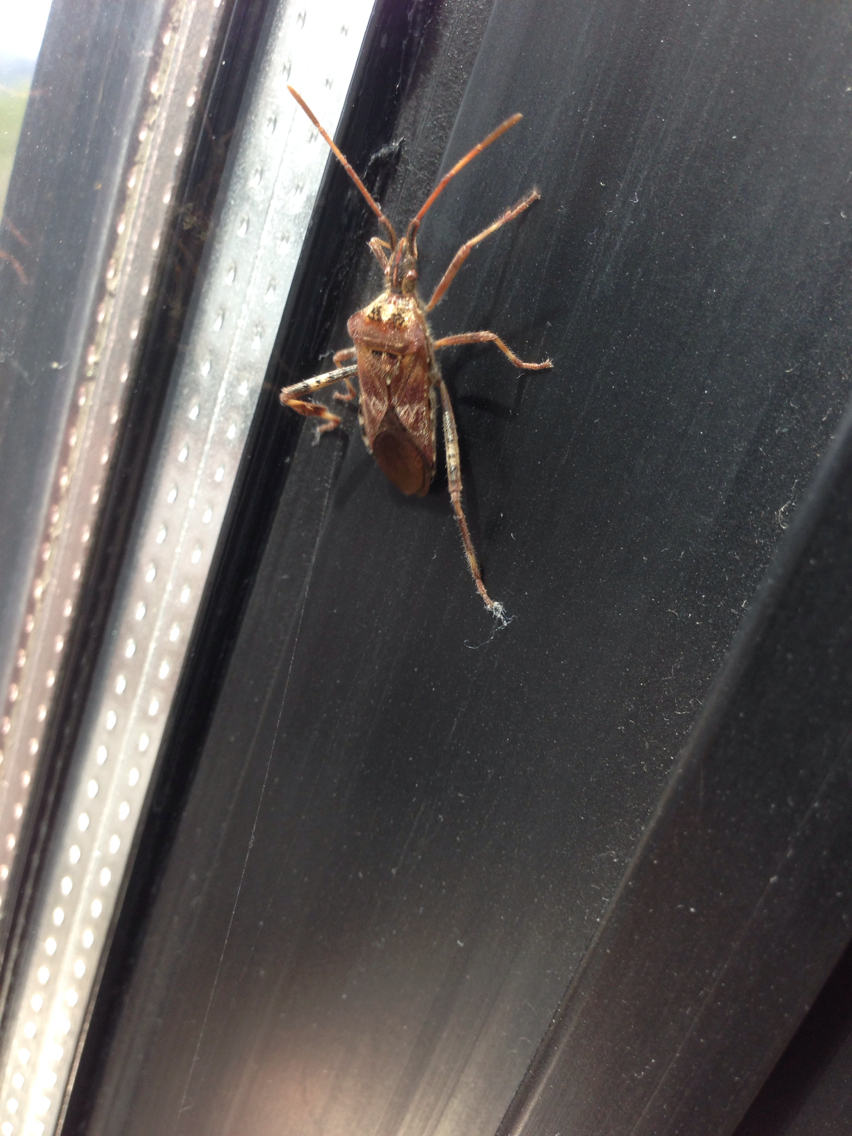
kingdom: Animalia
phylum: Arthropoda
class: Insecta
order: Hemiptera
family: Coreidae
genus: Leptoglossus
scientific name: Leptoglossus occidentalis
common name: Western conifer-seed bug
